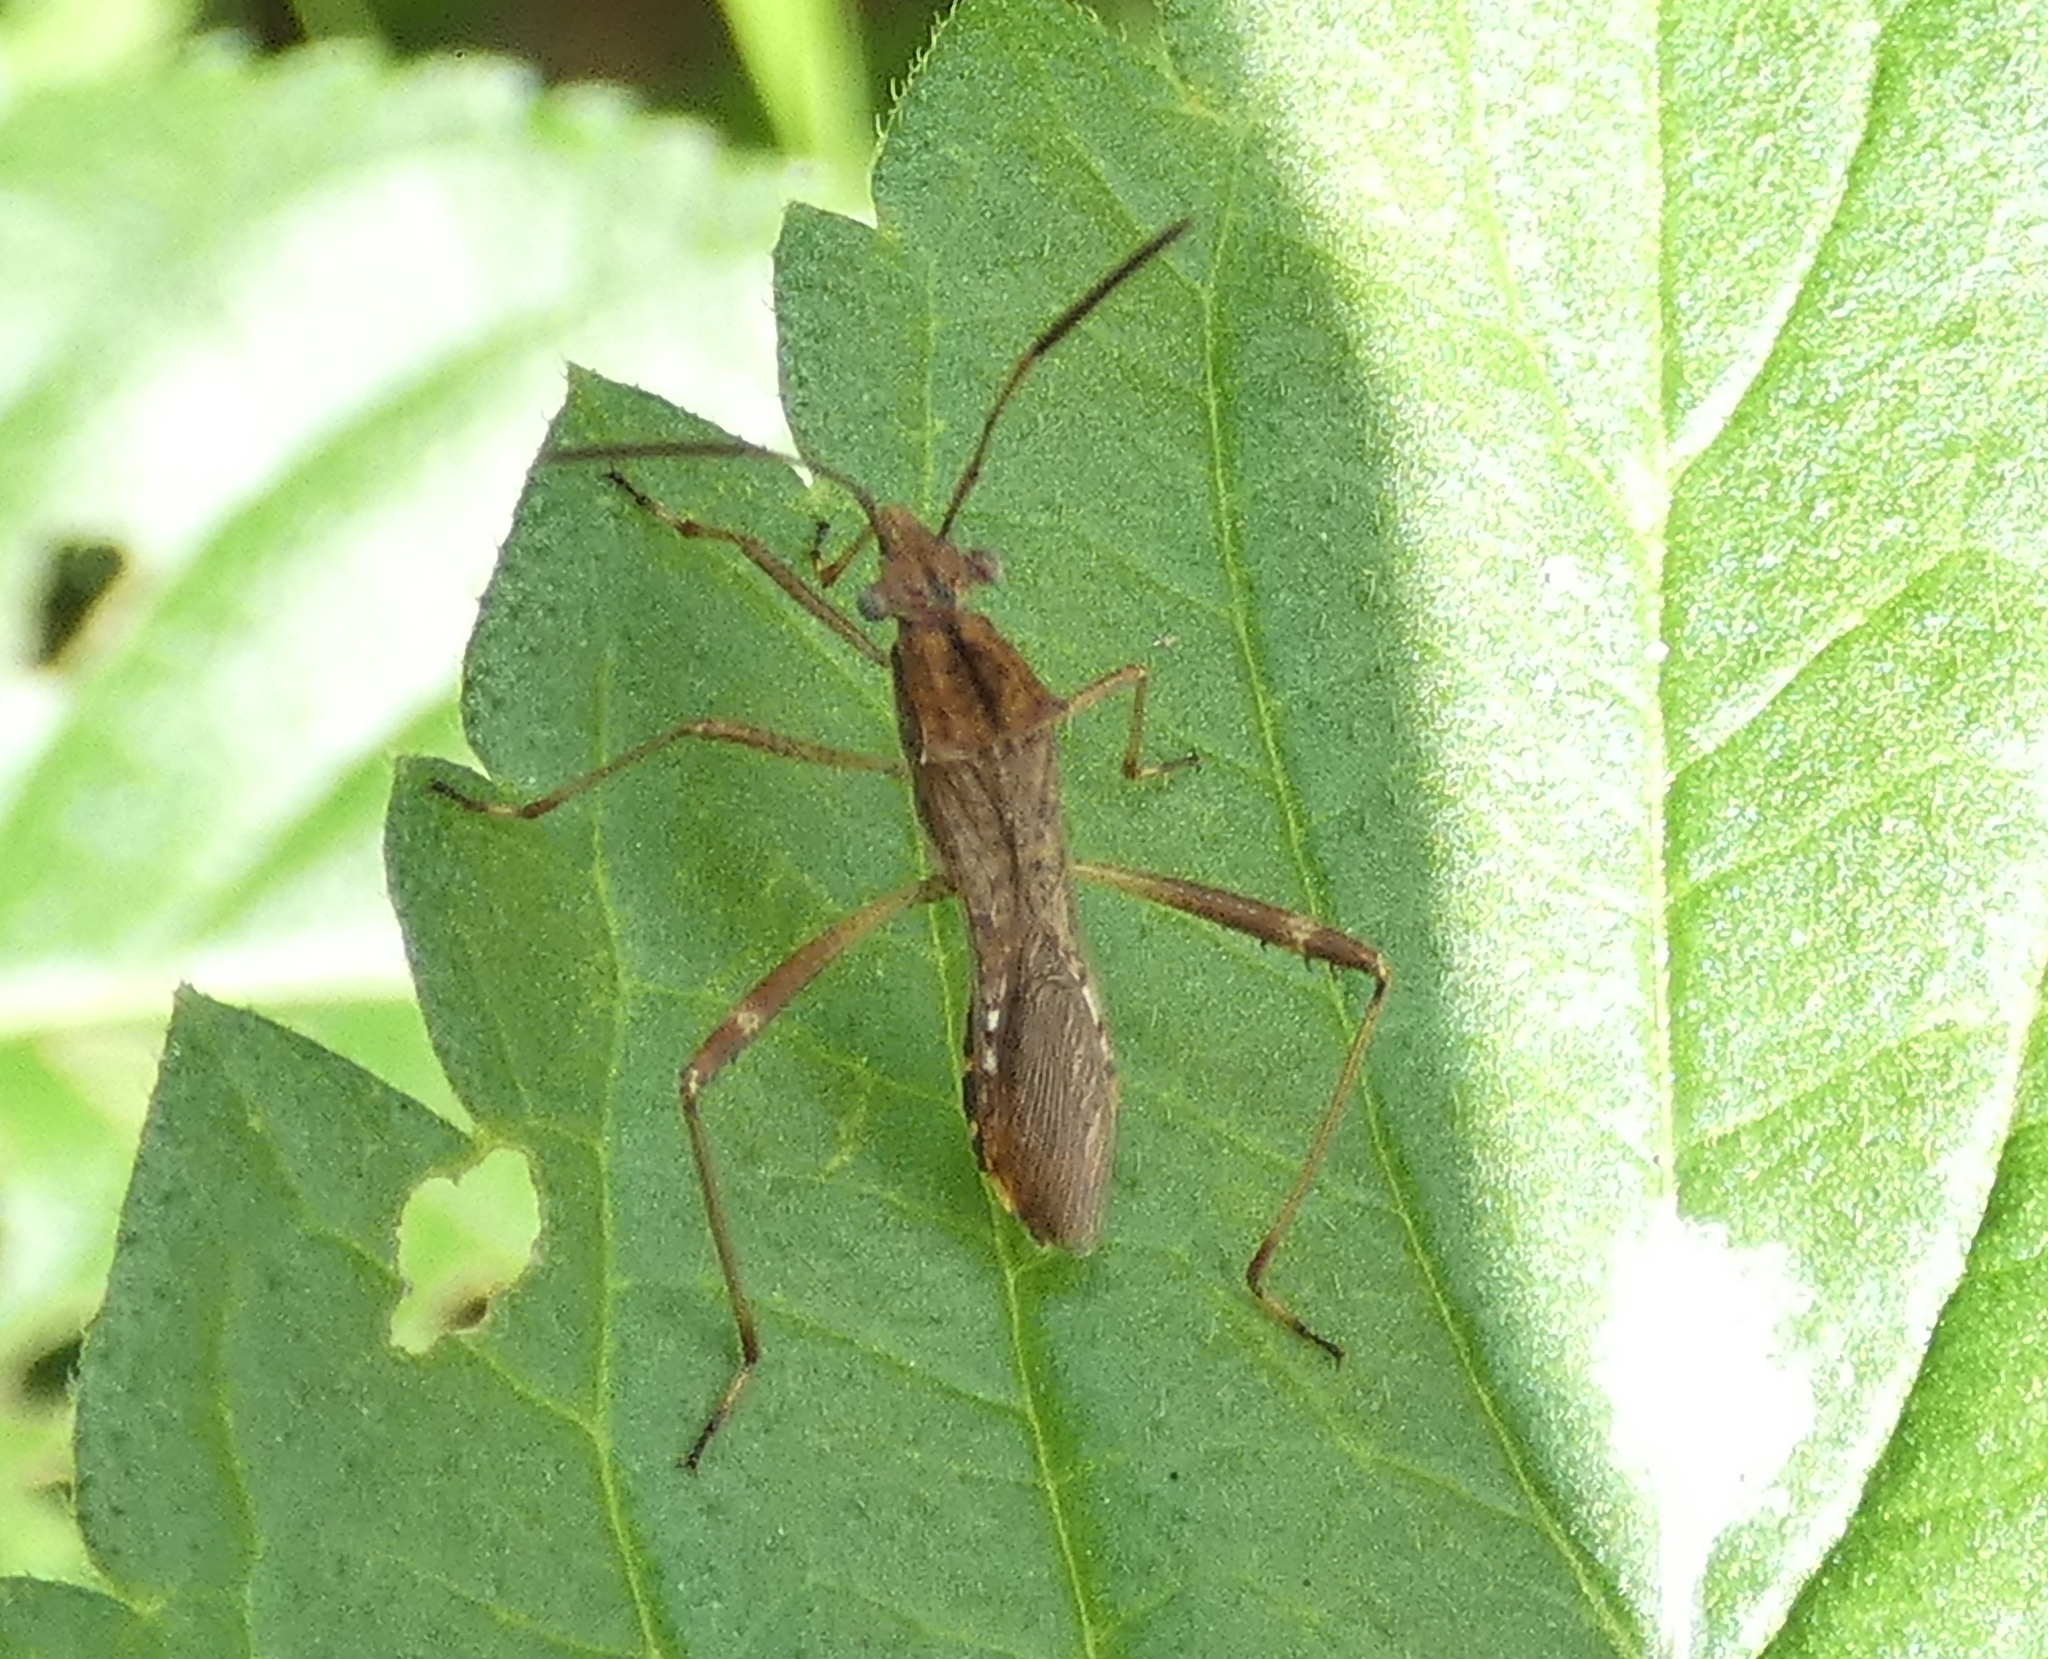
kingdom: Animalia
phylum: Arthropoda
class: Insecta
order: Hemiptera
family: Alydidae
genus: Neomegalotomus
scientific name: Neomegalotomus parvus
